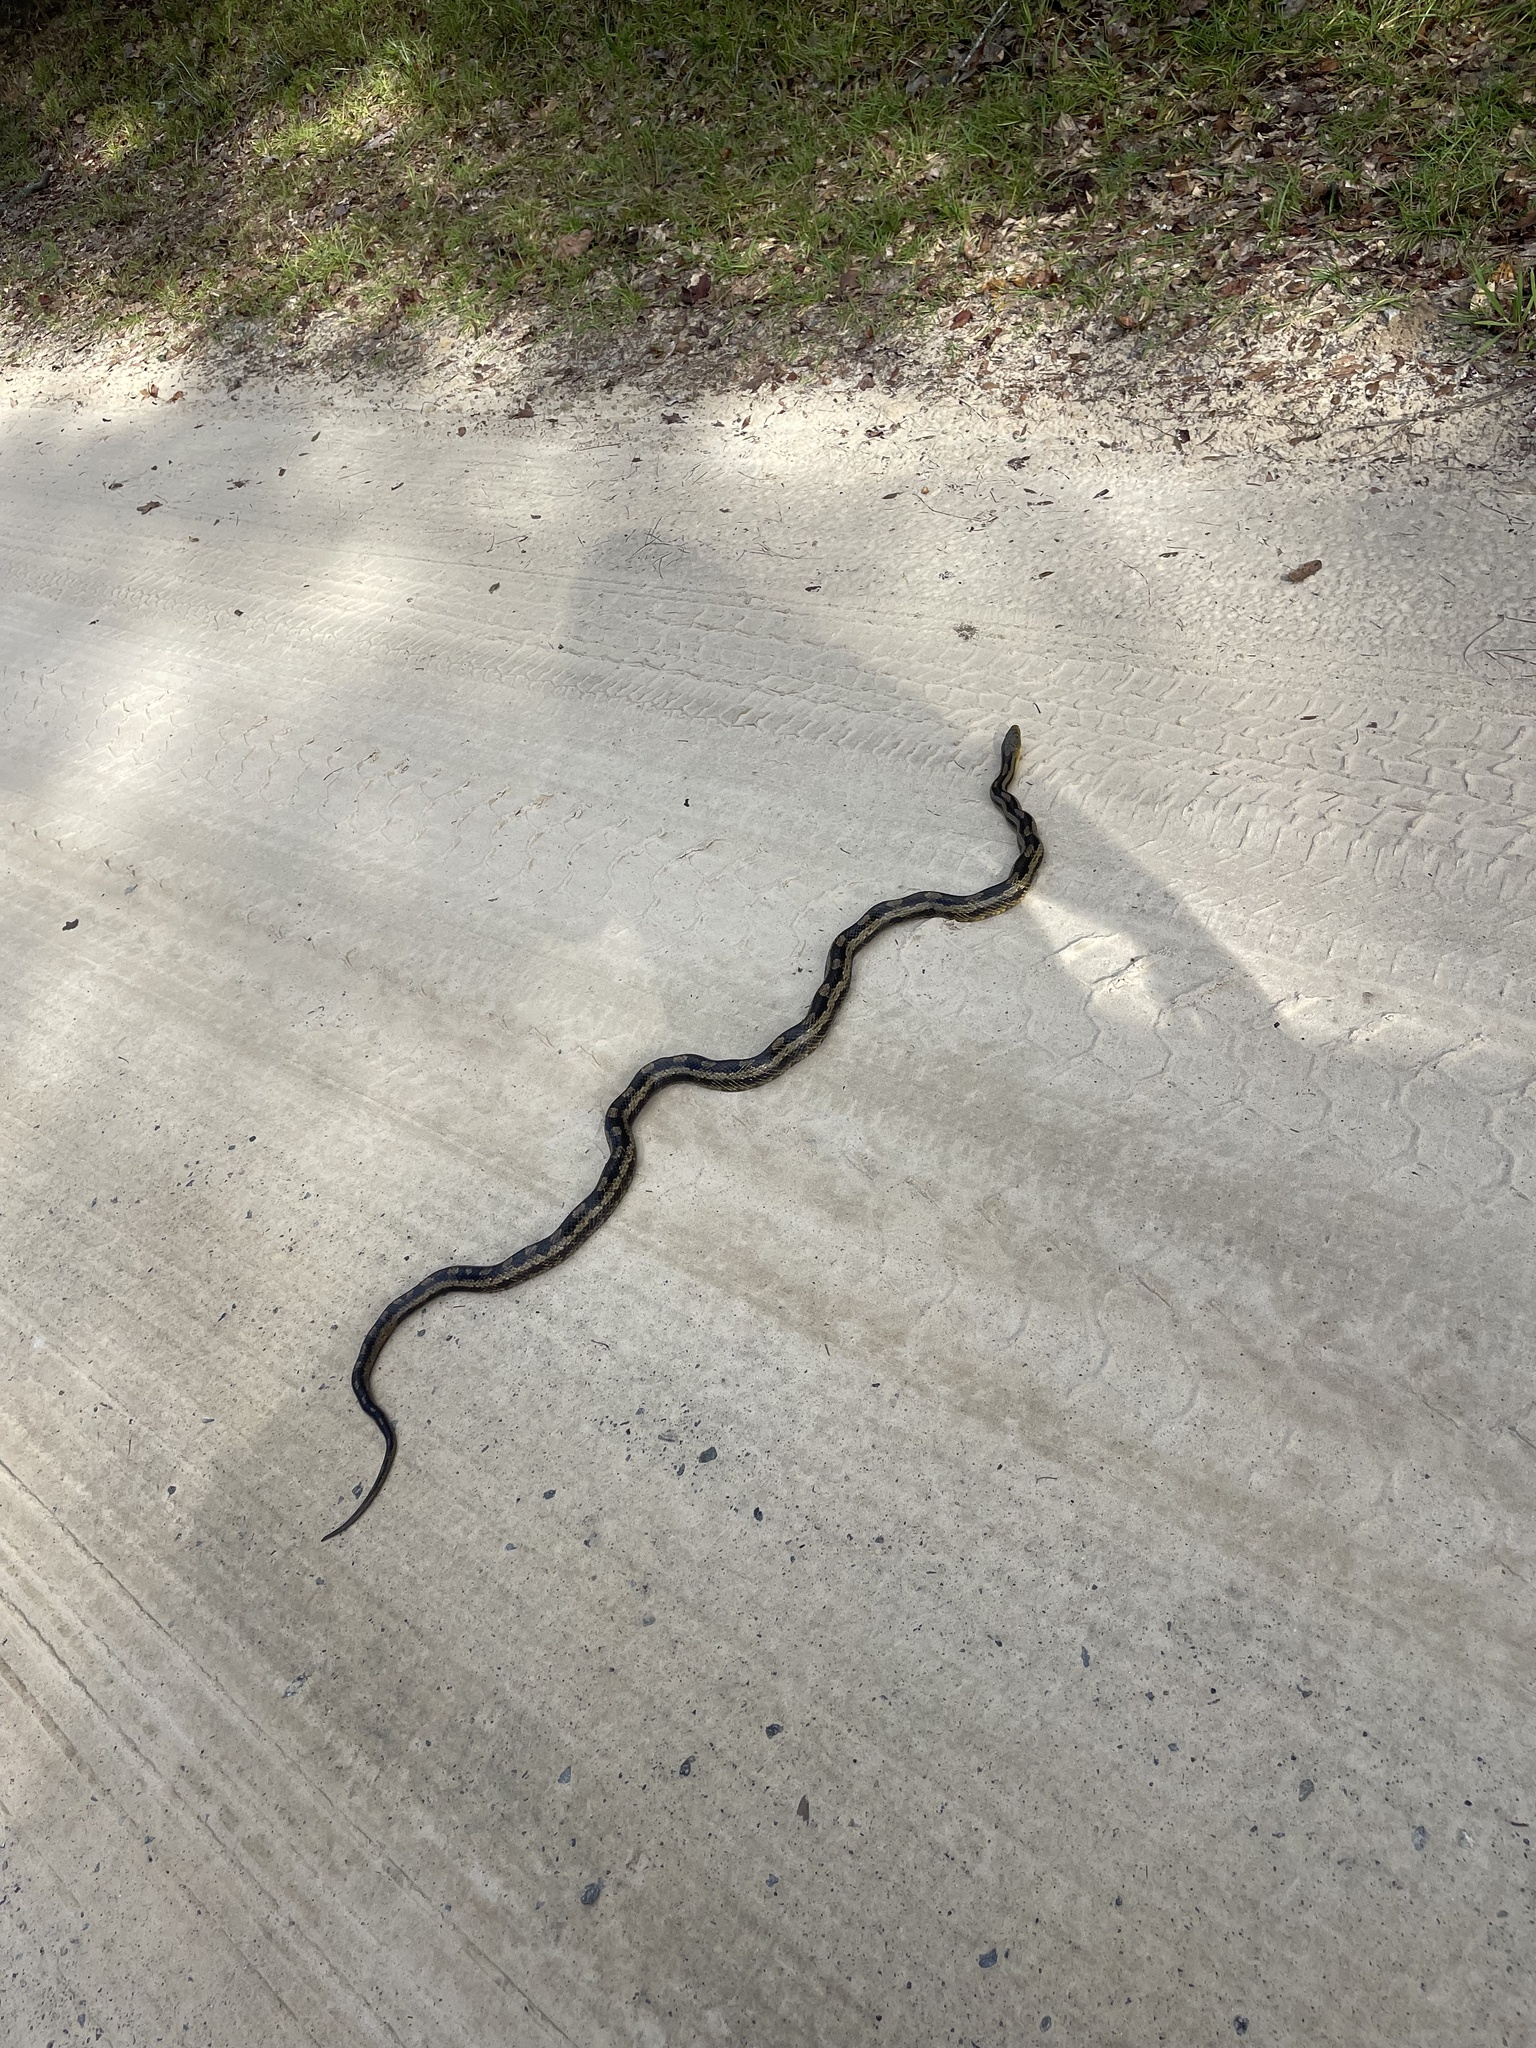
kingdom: Animalia
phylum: Chordata
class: Squamata
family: Colubridae
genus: Pantherophis
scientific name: Pantherophis alleghaniensis
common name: Eastern rat snake
